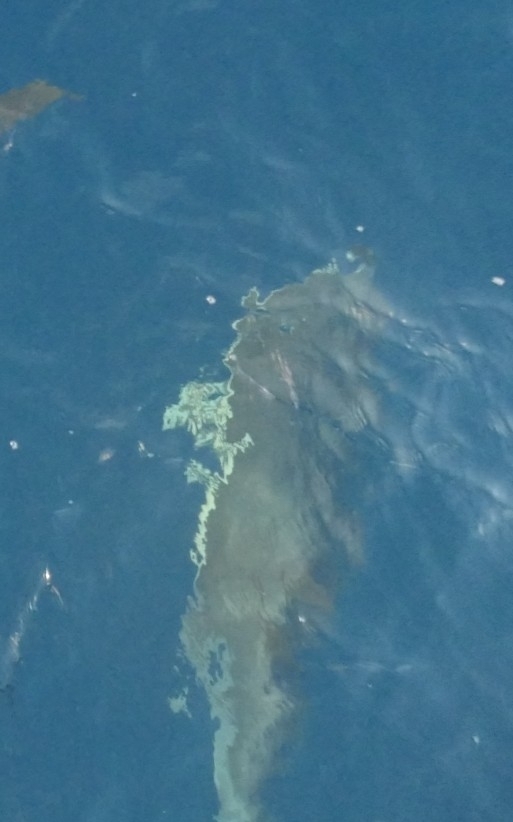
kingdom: Animalia
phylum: Chordata
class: Mammalia
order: Cetacea
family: Delphinidae
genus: Delphinus
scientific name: Delphinus delphis
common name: Common dolphin
